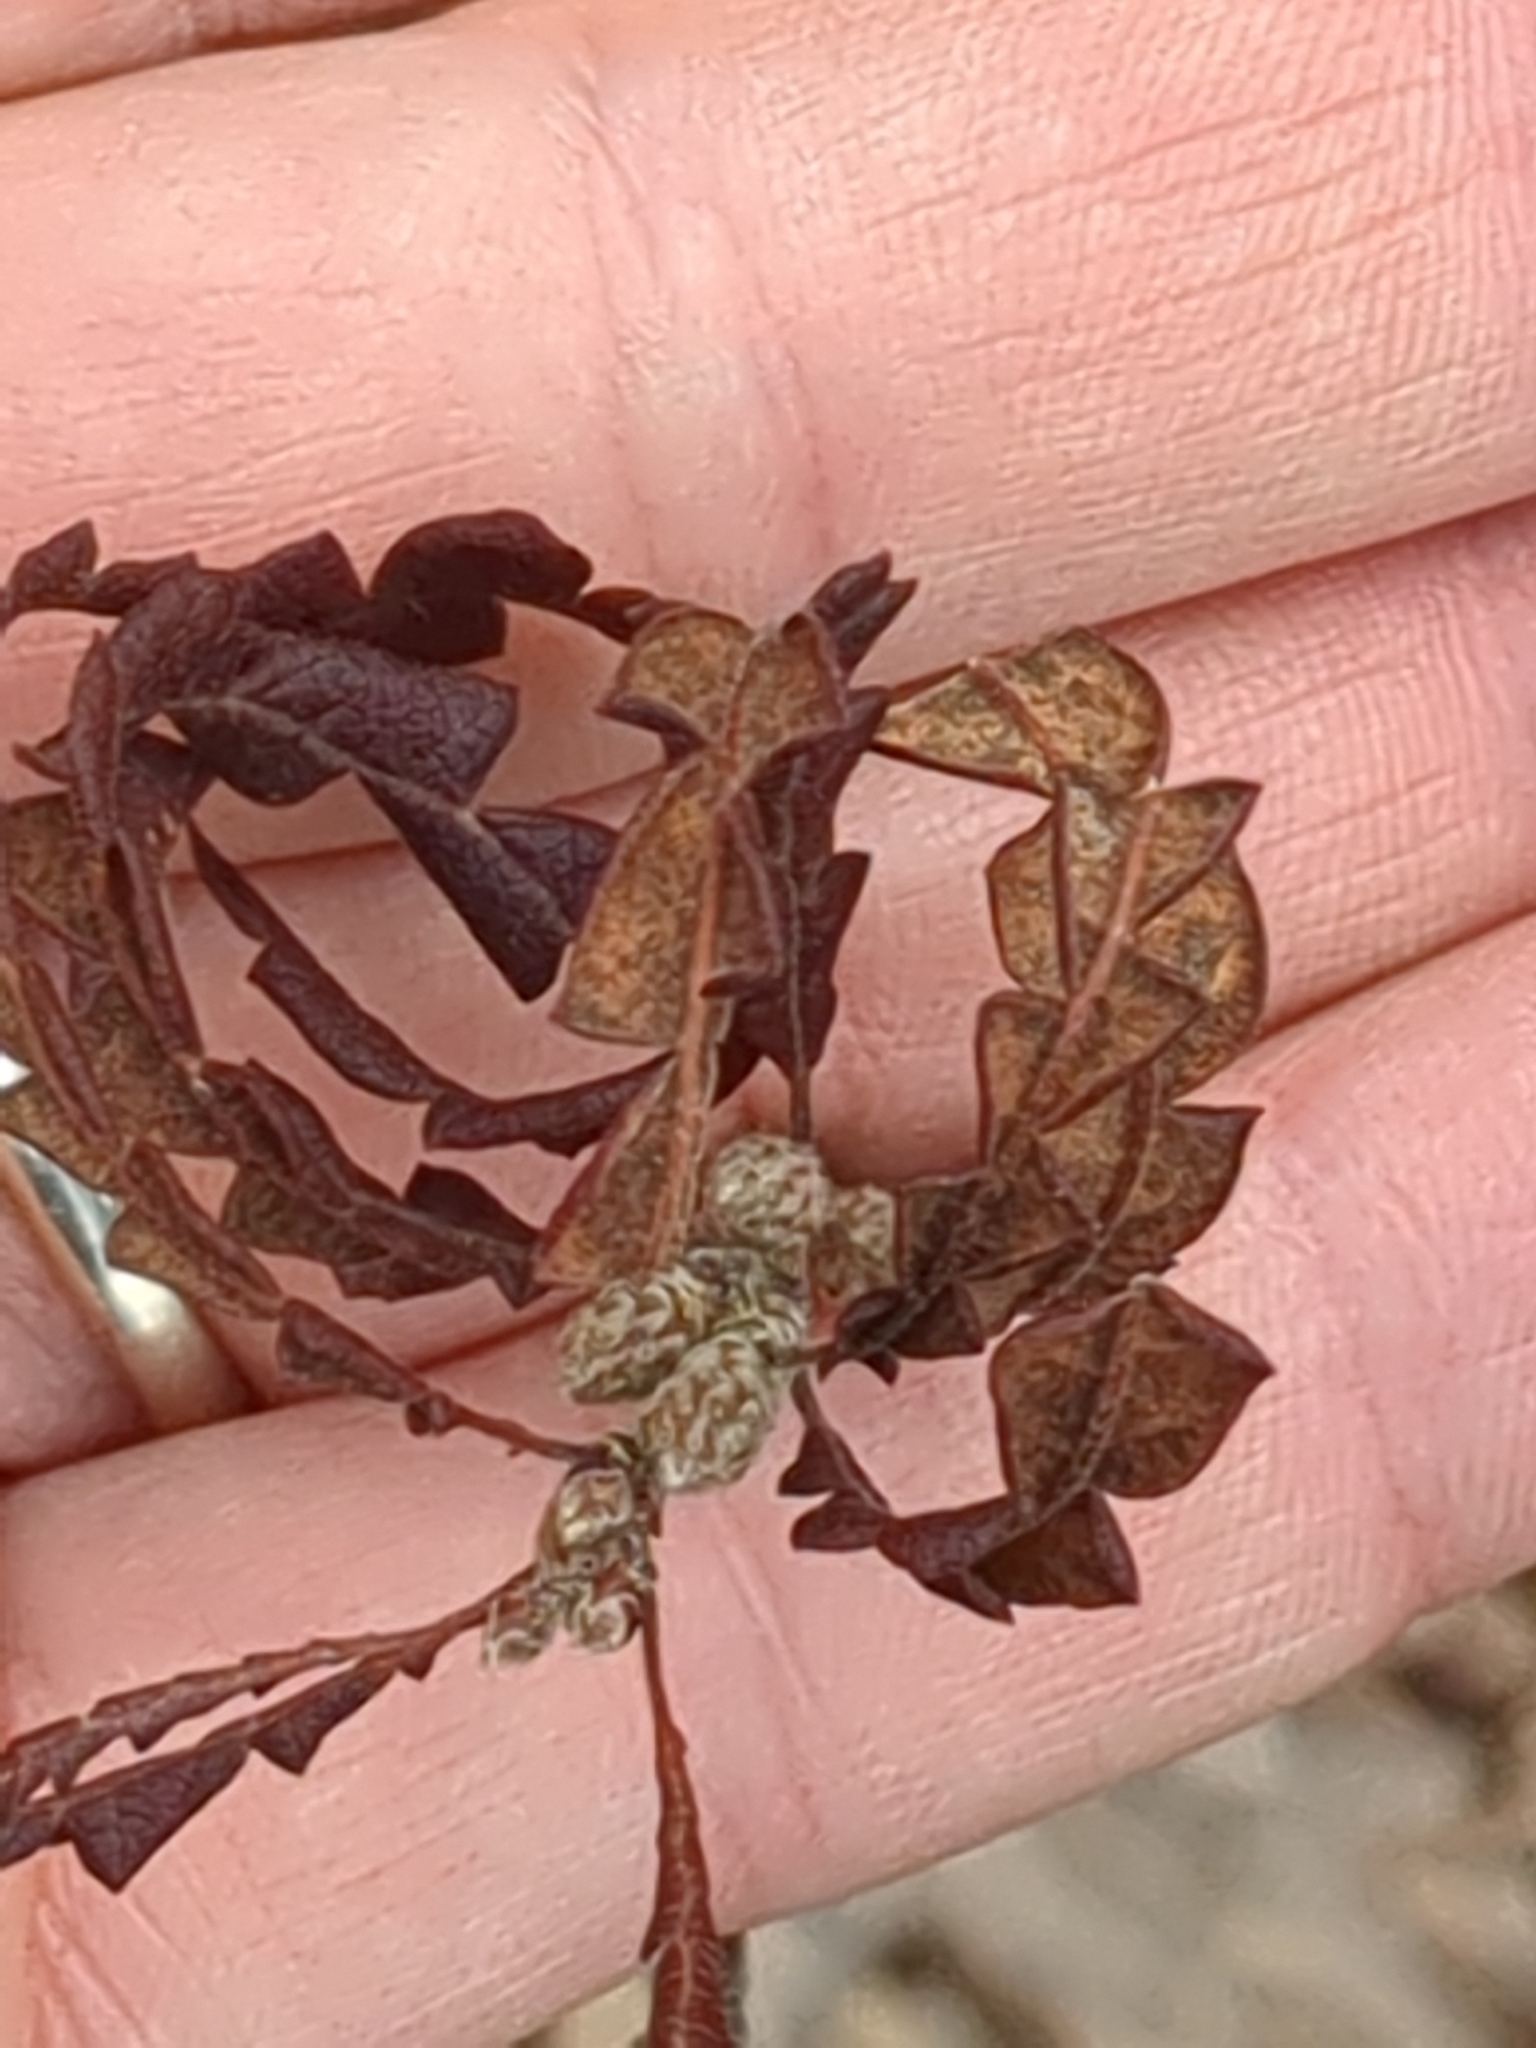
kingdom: Plantae
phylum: Tracheophyta
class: Magnoliopsida
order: Fagales
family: Myricaceae
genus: Comptonia
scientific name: Comptonia peregrina
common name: Sweet-fern
